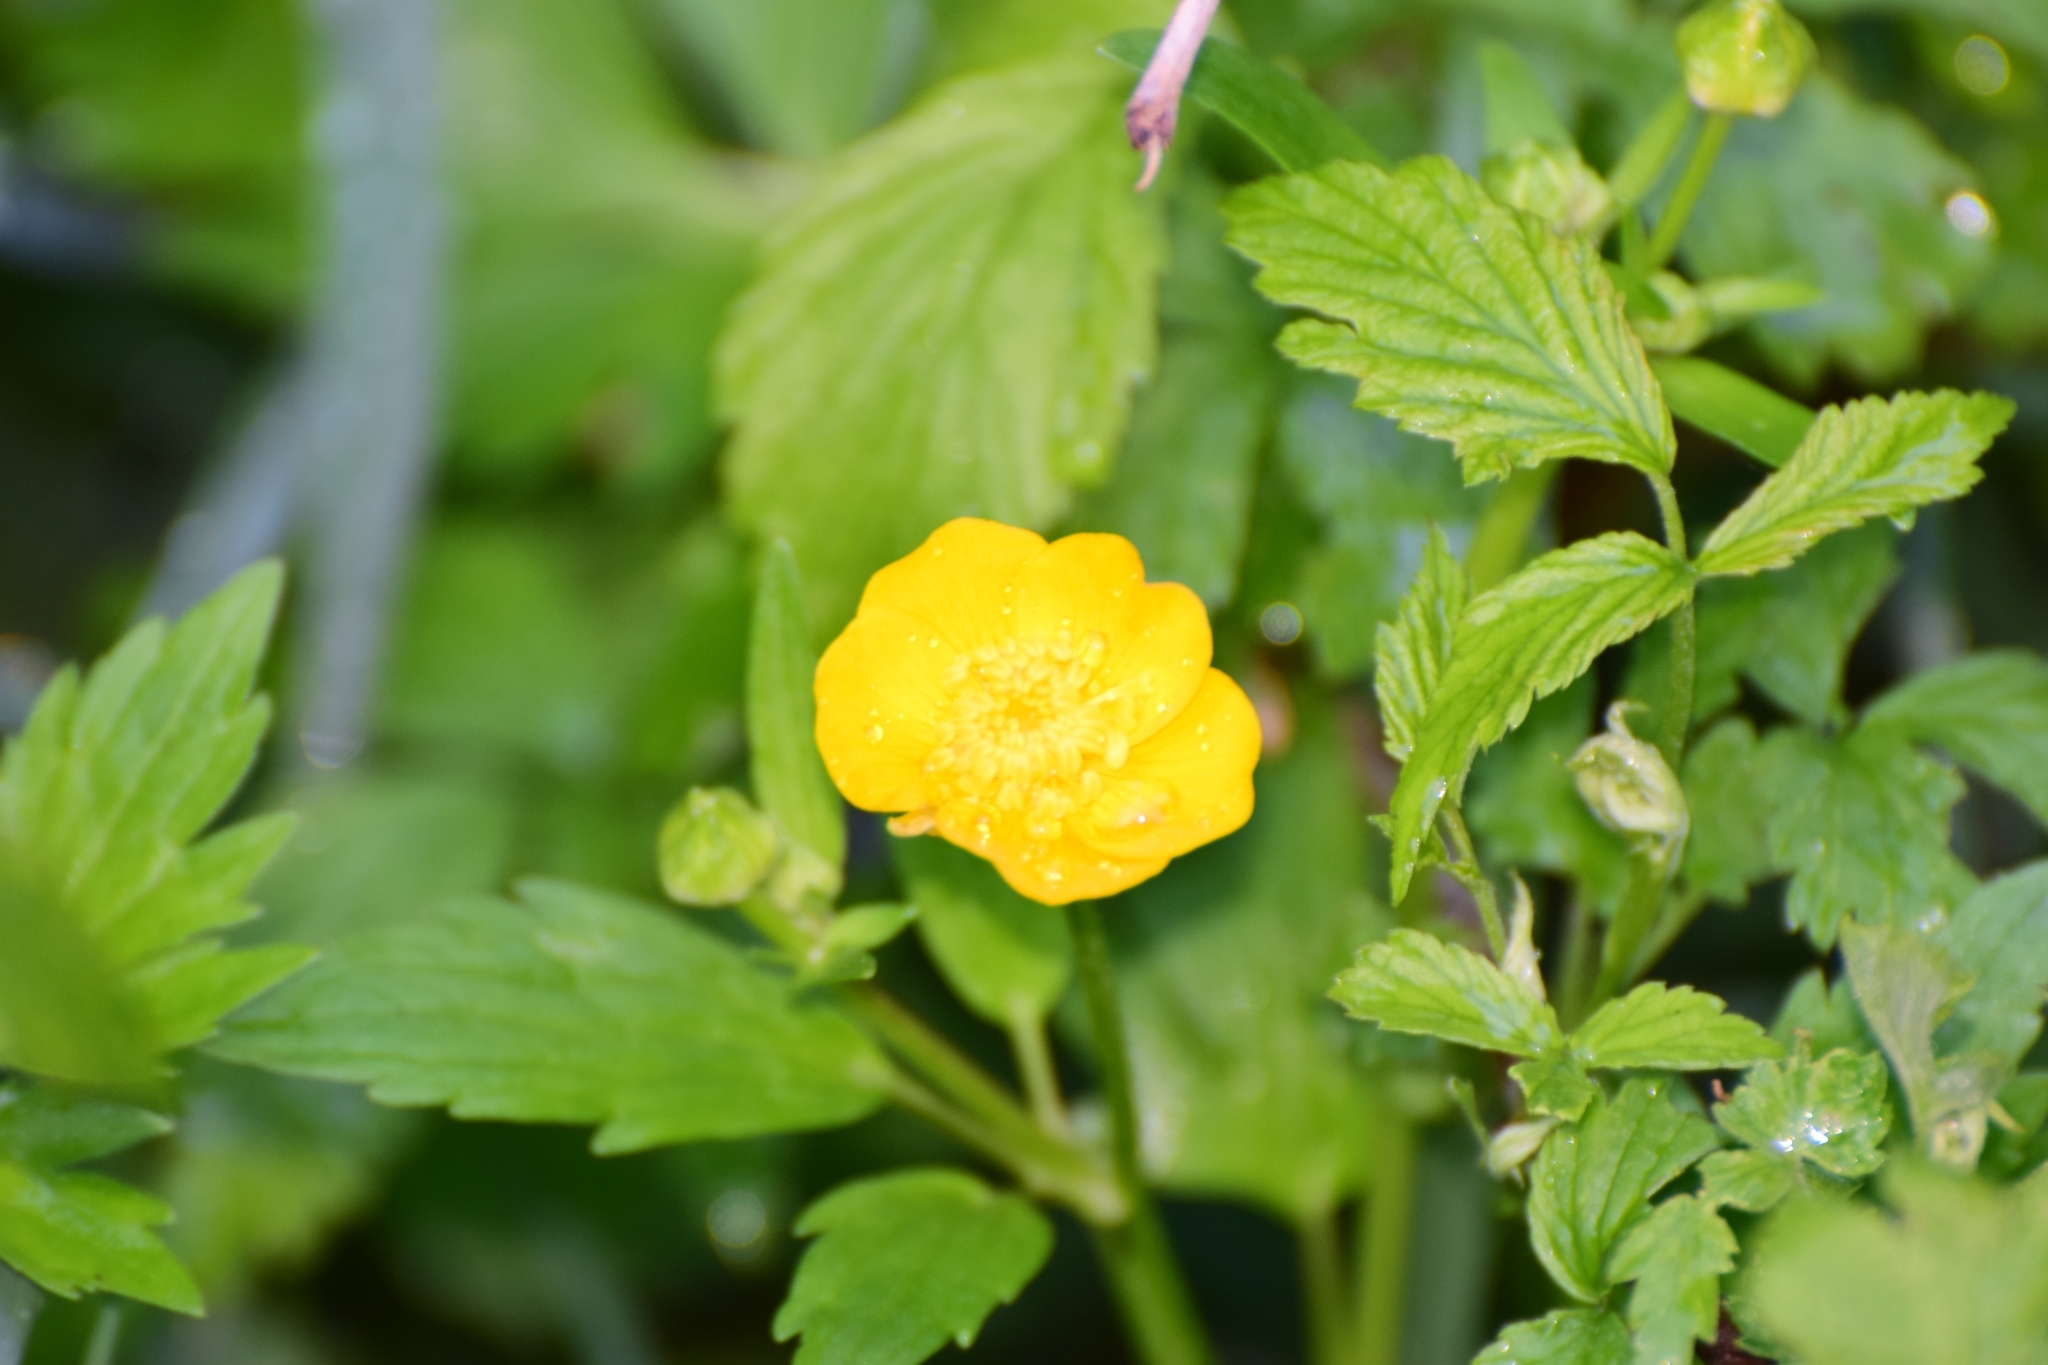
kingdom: Plantae
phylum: Tracheophyta
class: Magnoliopsida
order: Ranunculales
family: Ranunculaceae
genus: Ranunculus
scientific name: Ranunculus repens
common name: Creeping buttercup
